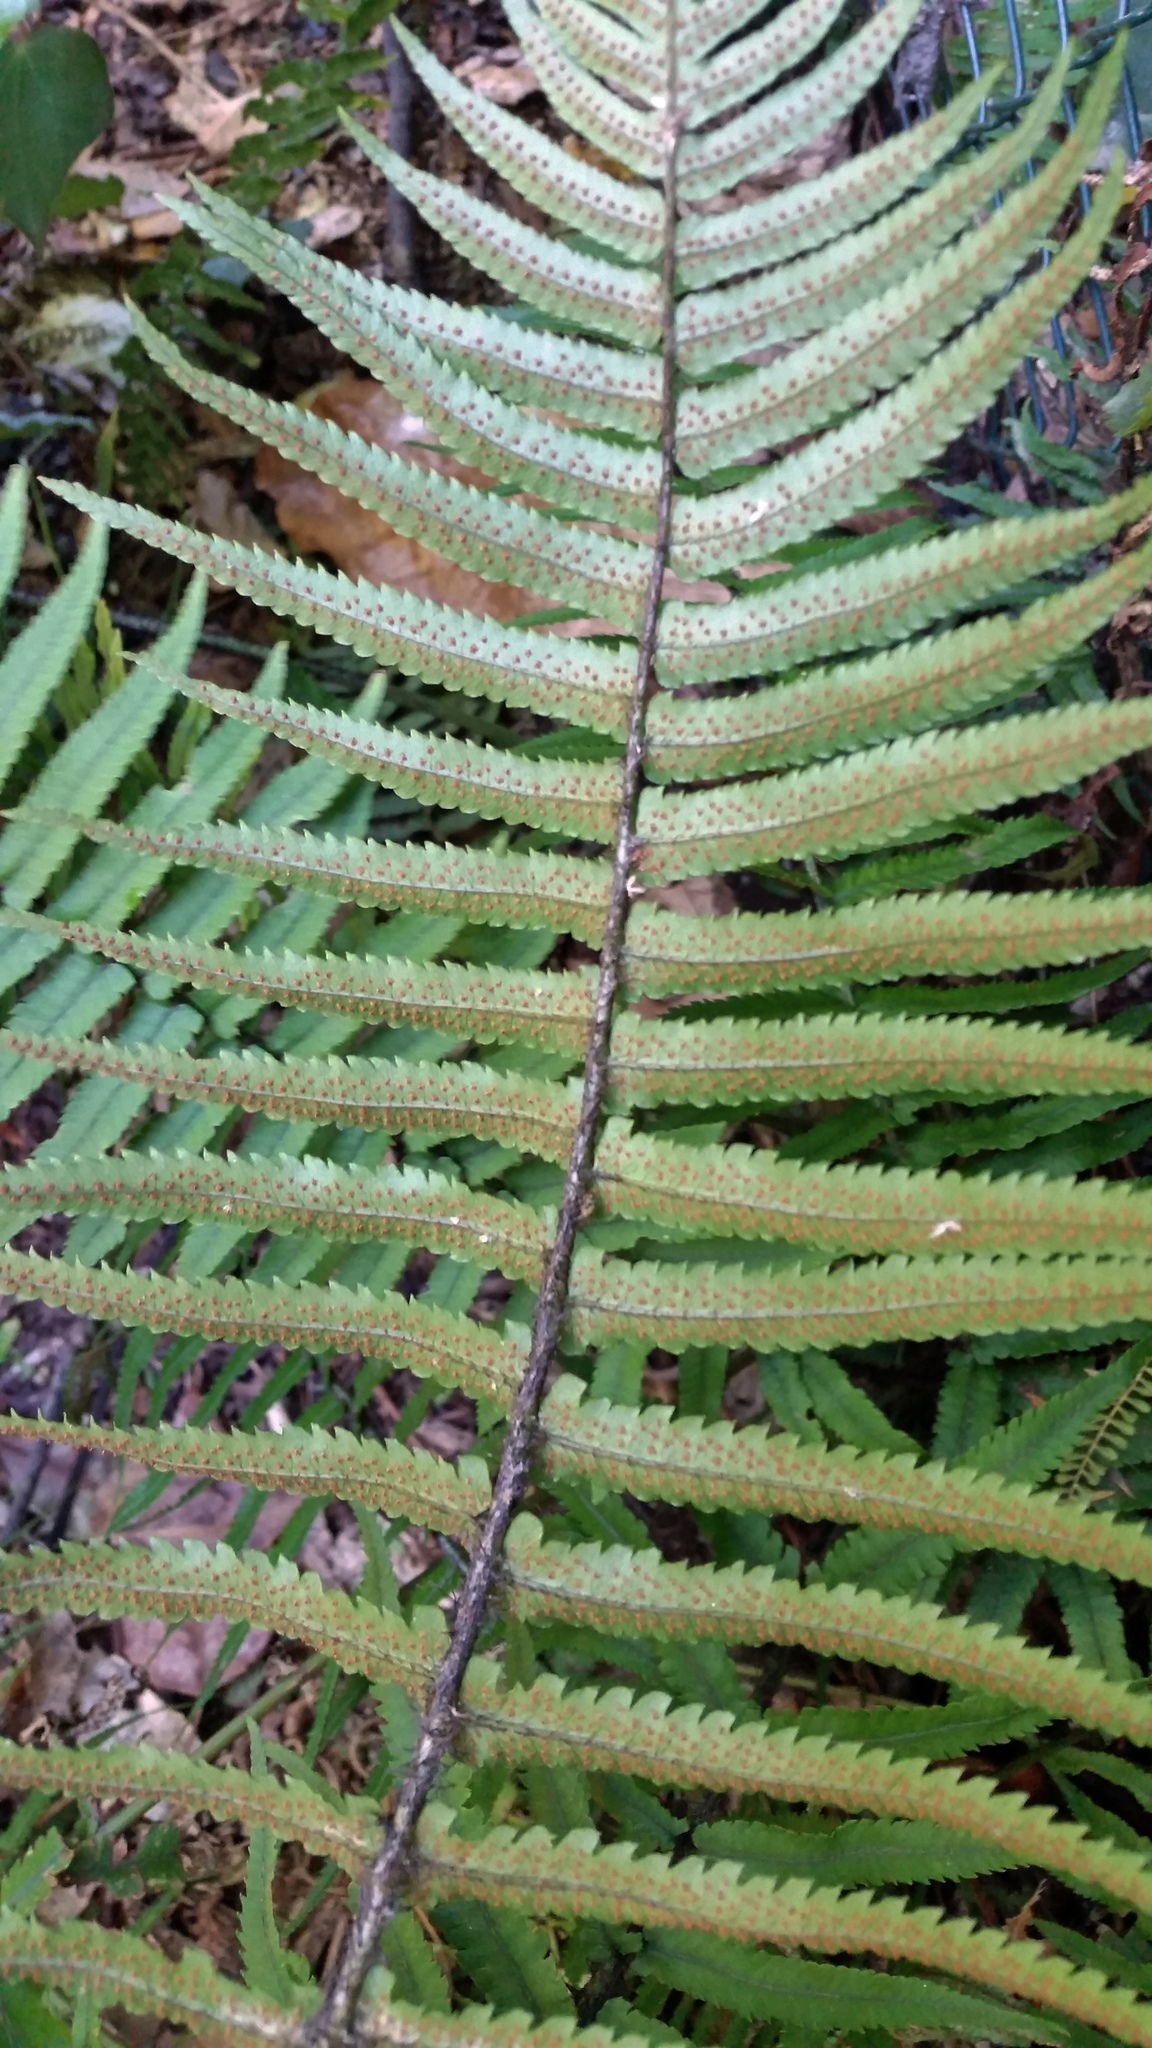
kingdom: Plantae
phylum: Tracheophyta
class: Polypodiopsida
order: Polypodiales
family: Dryopteridaceae
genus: Dryopteris
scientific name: Dryopteris cycadina
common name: Shaggy wood fern
